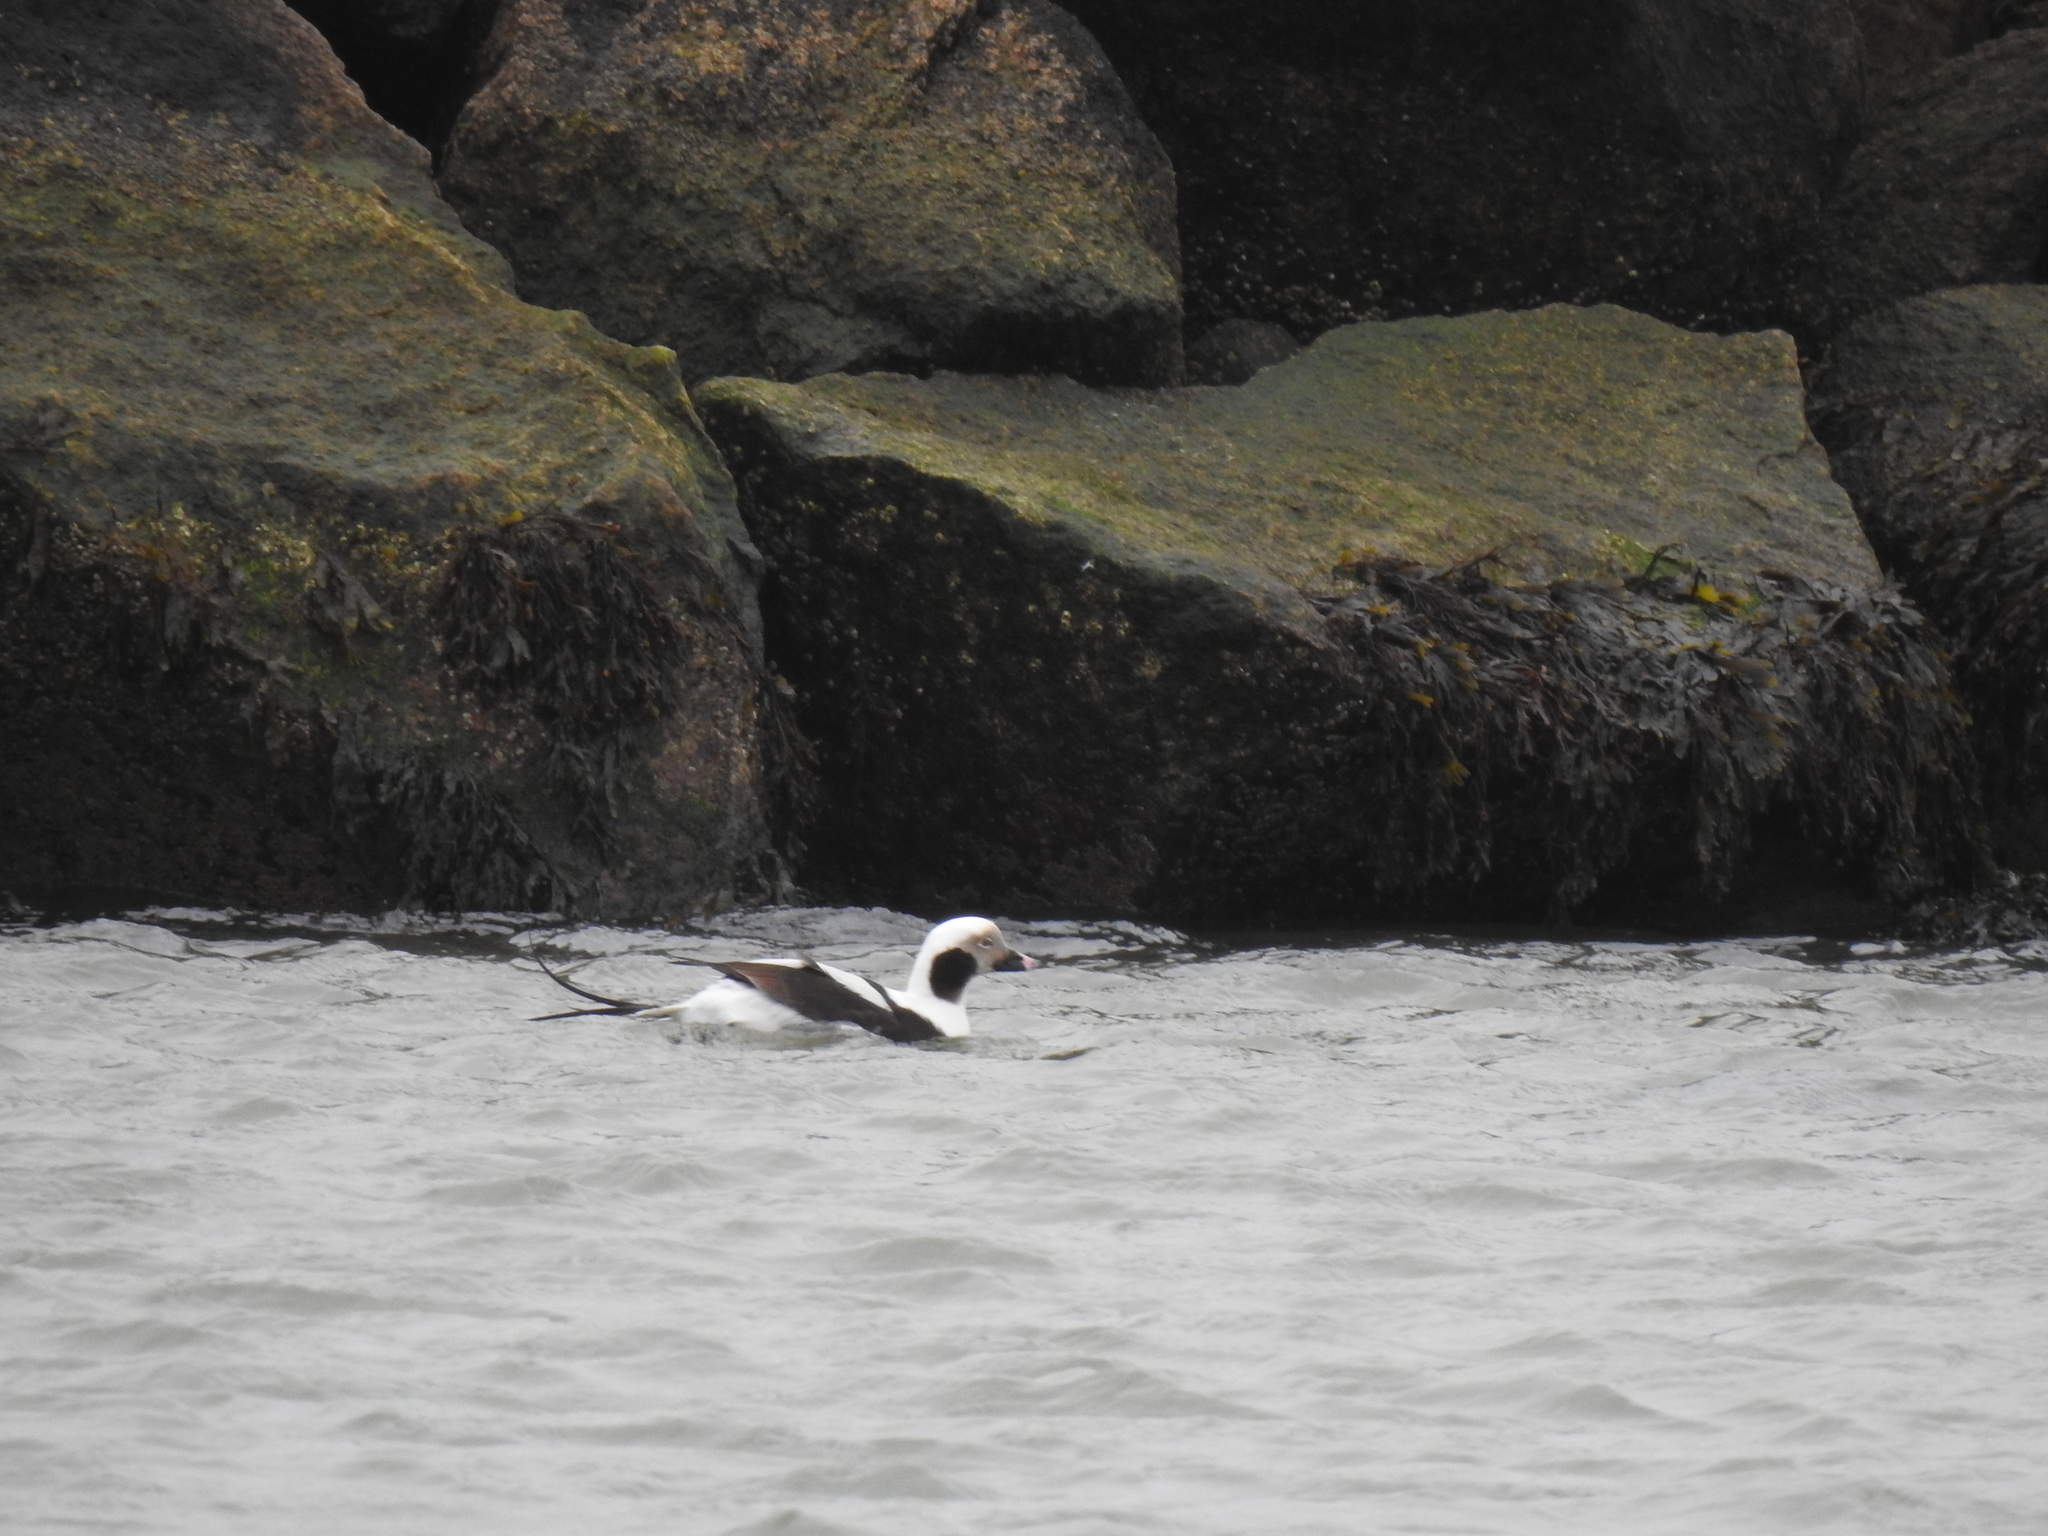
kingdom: Animalia
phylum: Chordata
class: Aves
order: Anseriformes
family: Anatidae
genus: Clangula
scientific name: Clangula hyemalis
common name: Long-tailed duck
